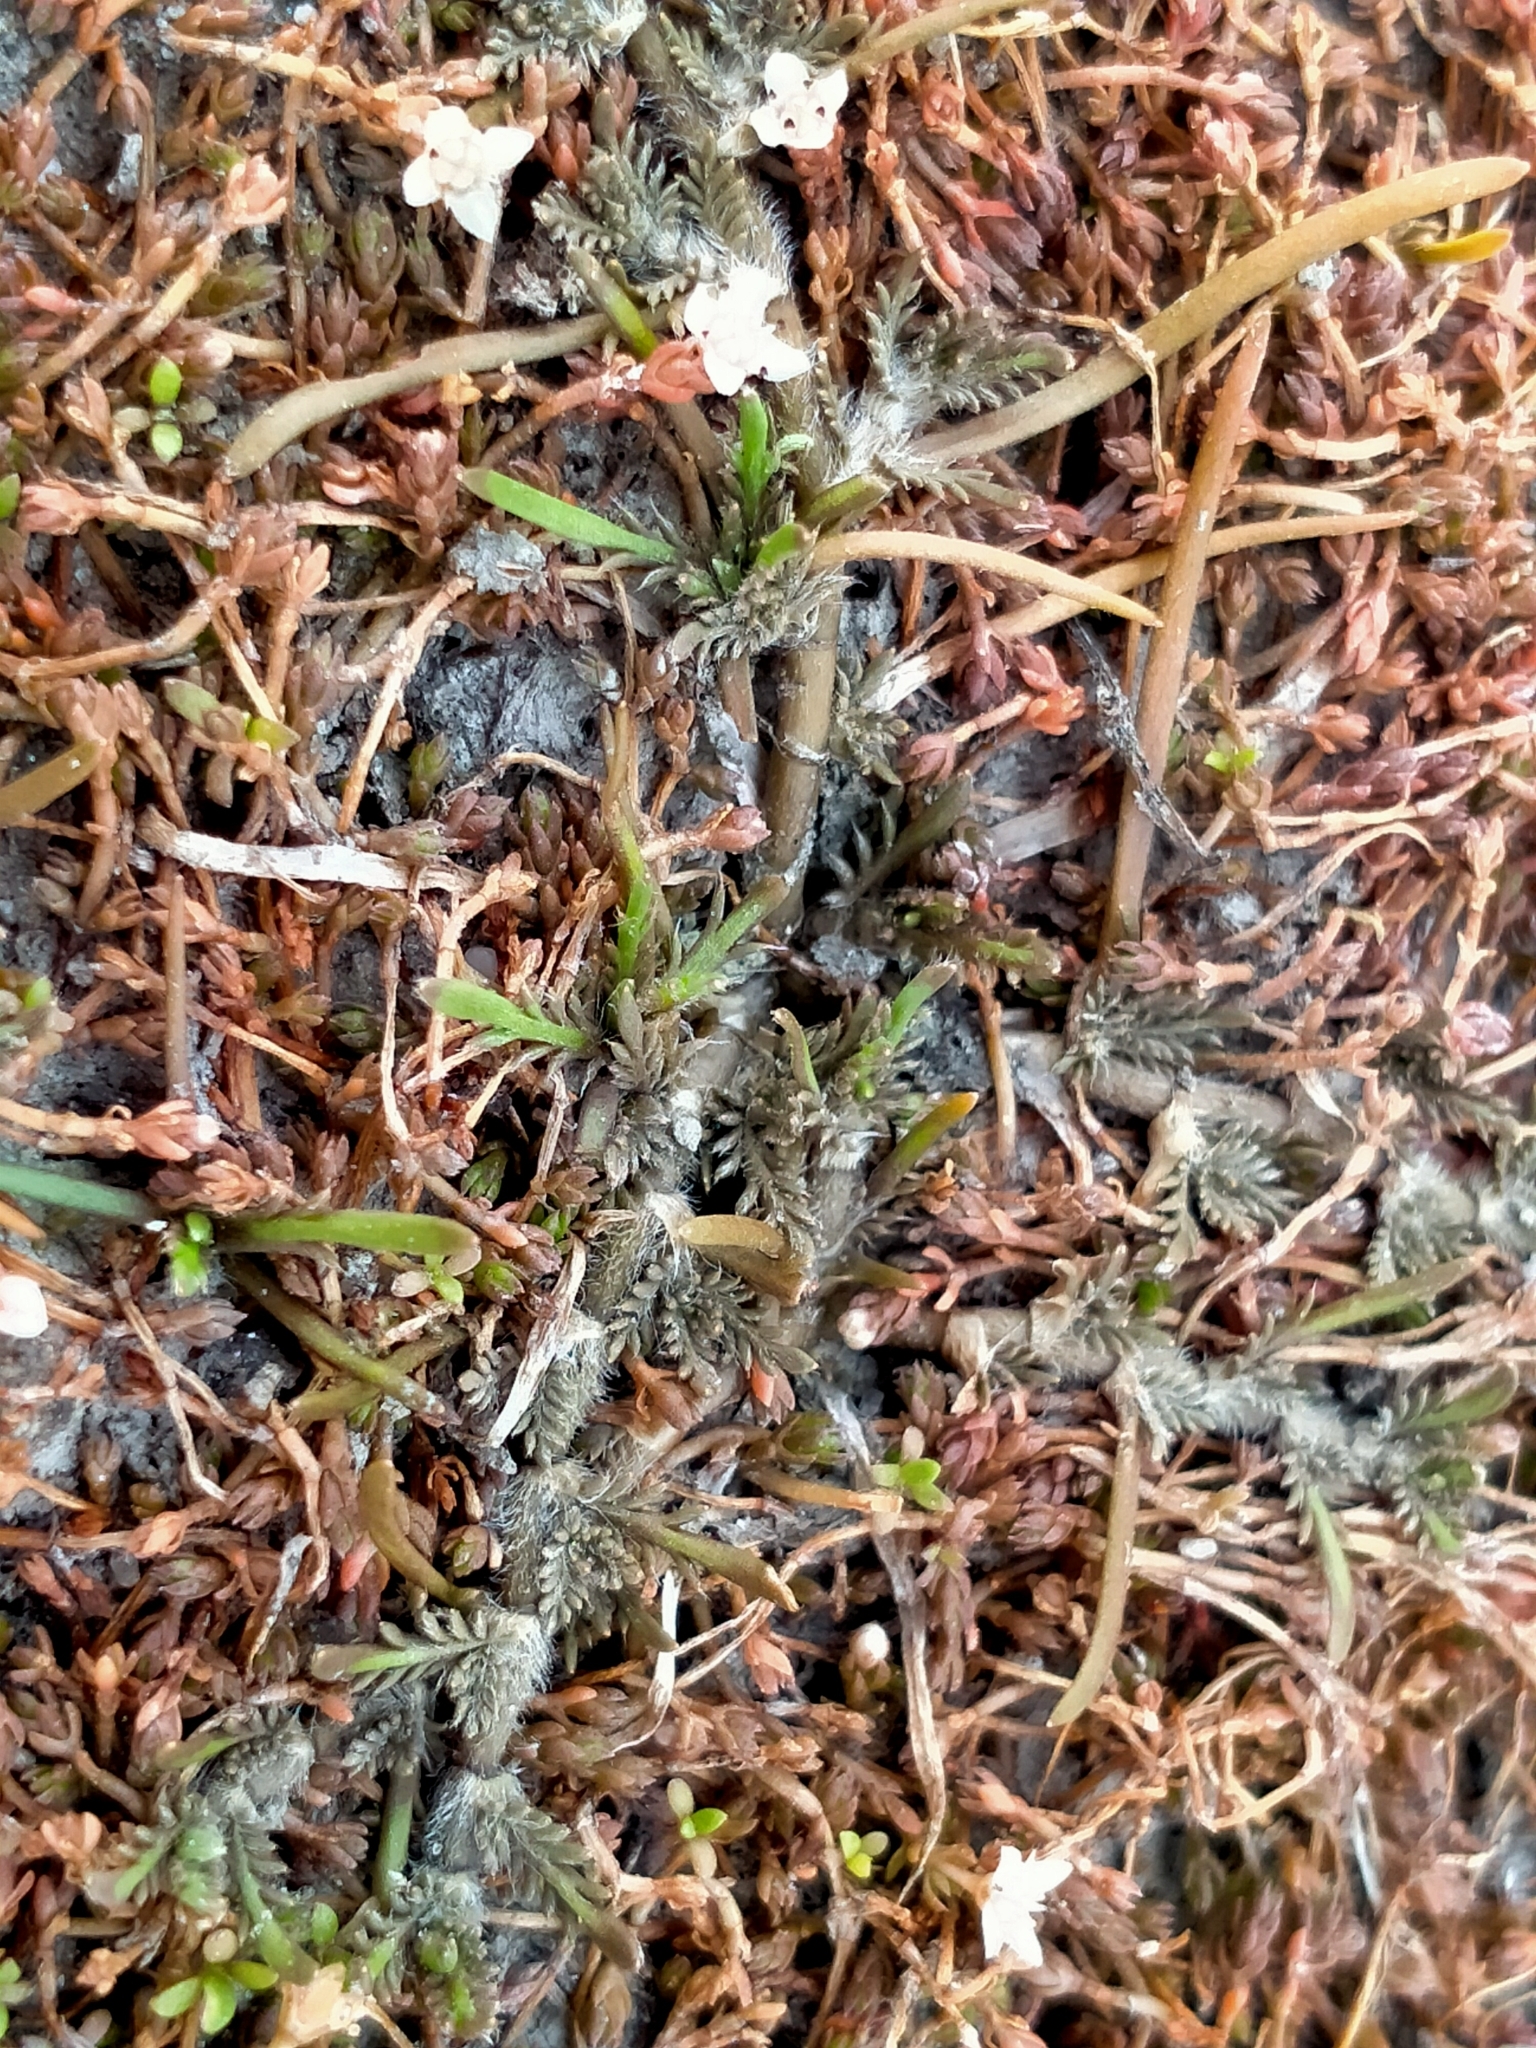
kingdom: Plantae
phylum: Tracheophyta
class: Magnoliopsida
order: Asterales
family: Asteraceae
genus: Leptinella
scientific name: Leptinella maniototo
